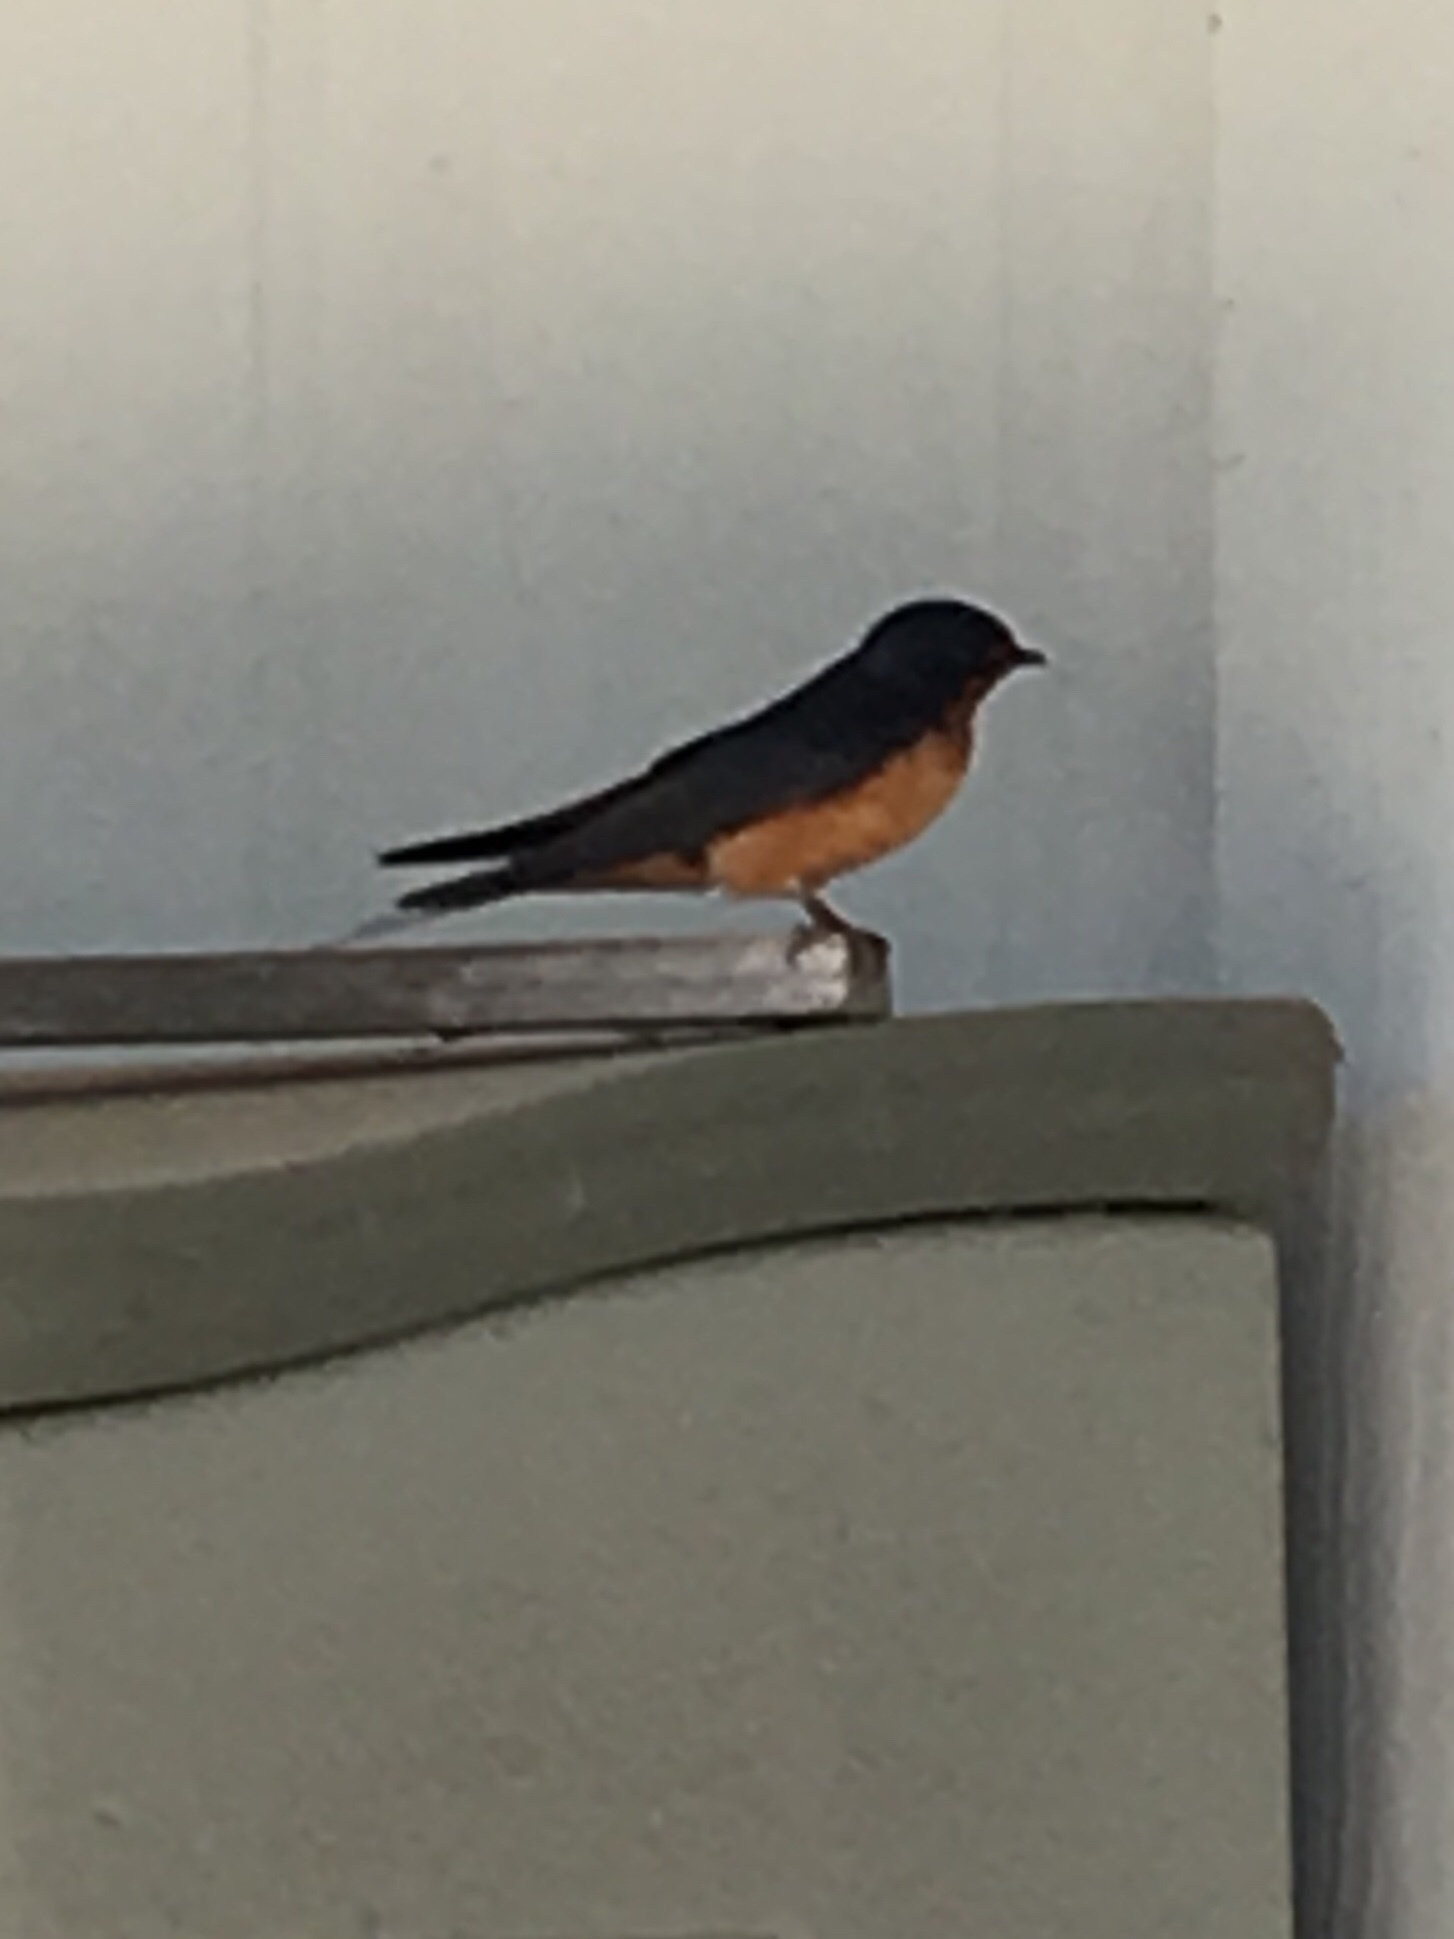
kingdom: Animalia
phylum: Chordata
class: Aves
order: Passeriformes
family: Hirundinidae
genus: Hirundo
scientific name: Hirundo rustica
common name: Barn swallow
